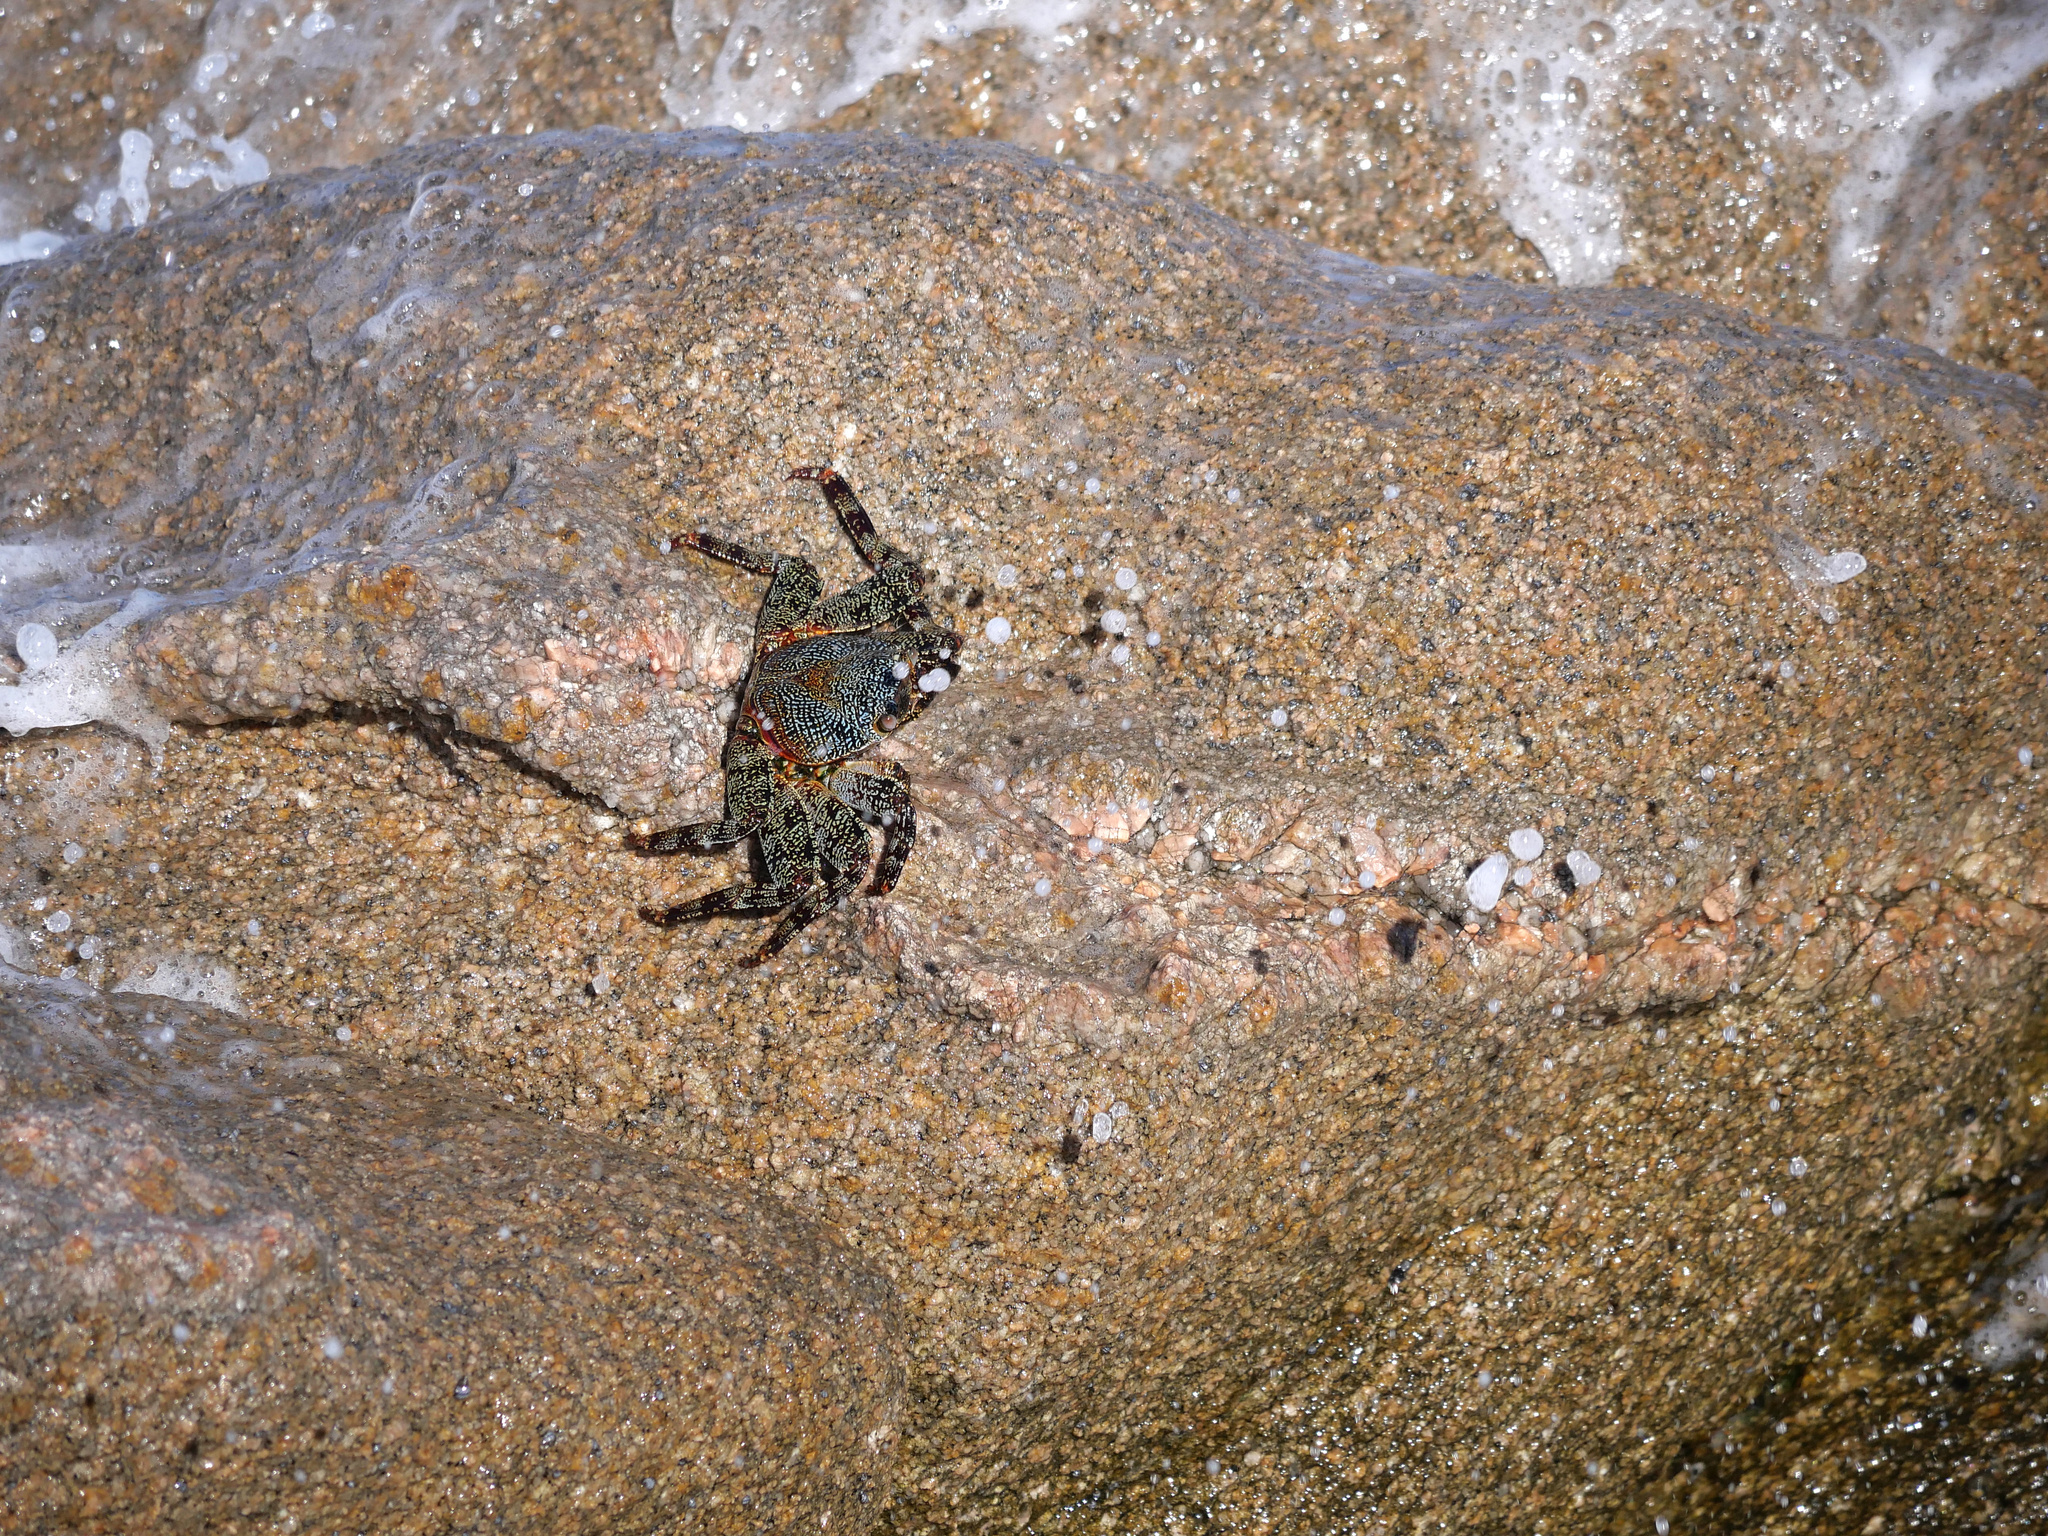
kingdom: Animalia
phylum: Arthropoda
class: Malacostraca
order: Decapoda
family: Grapsidae
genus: Grapsus
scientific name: Grapsus grapsus
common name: Sally lightfoot
